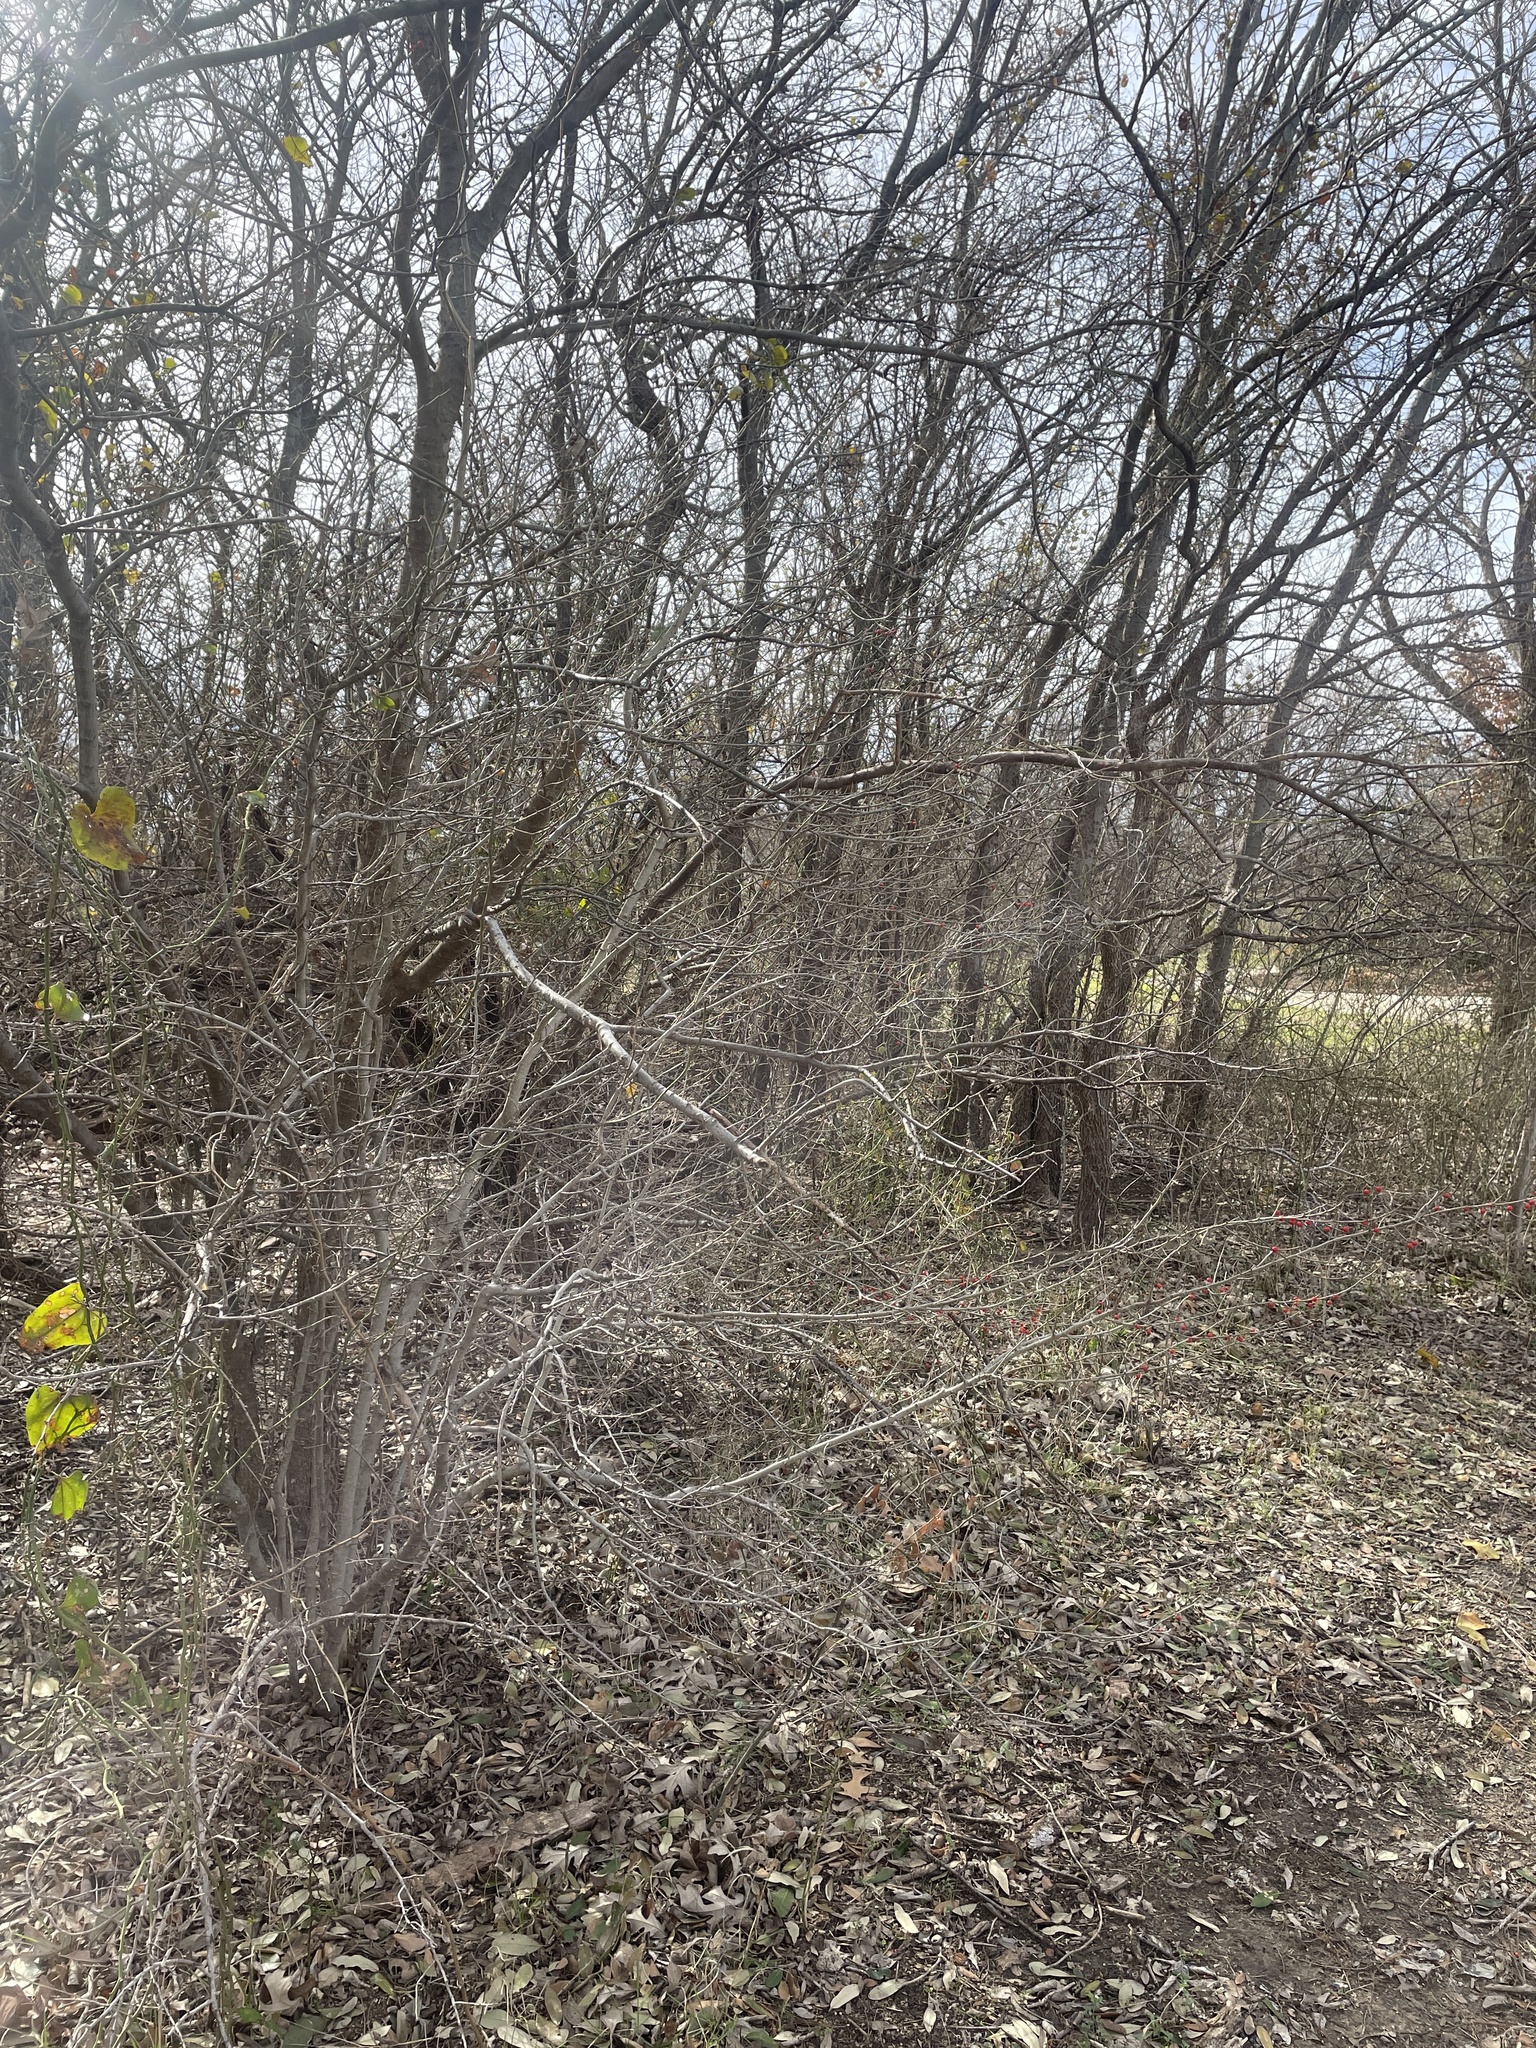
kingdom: Plantae
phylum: Tracheophyta
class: Magnoliopsida
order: Aquifoliales
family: Aquifoliaceae
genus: Ilex
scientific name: Ilex decidua
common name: Possum-haw
